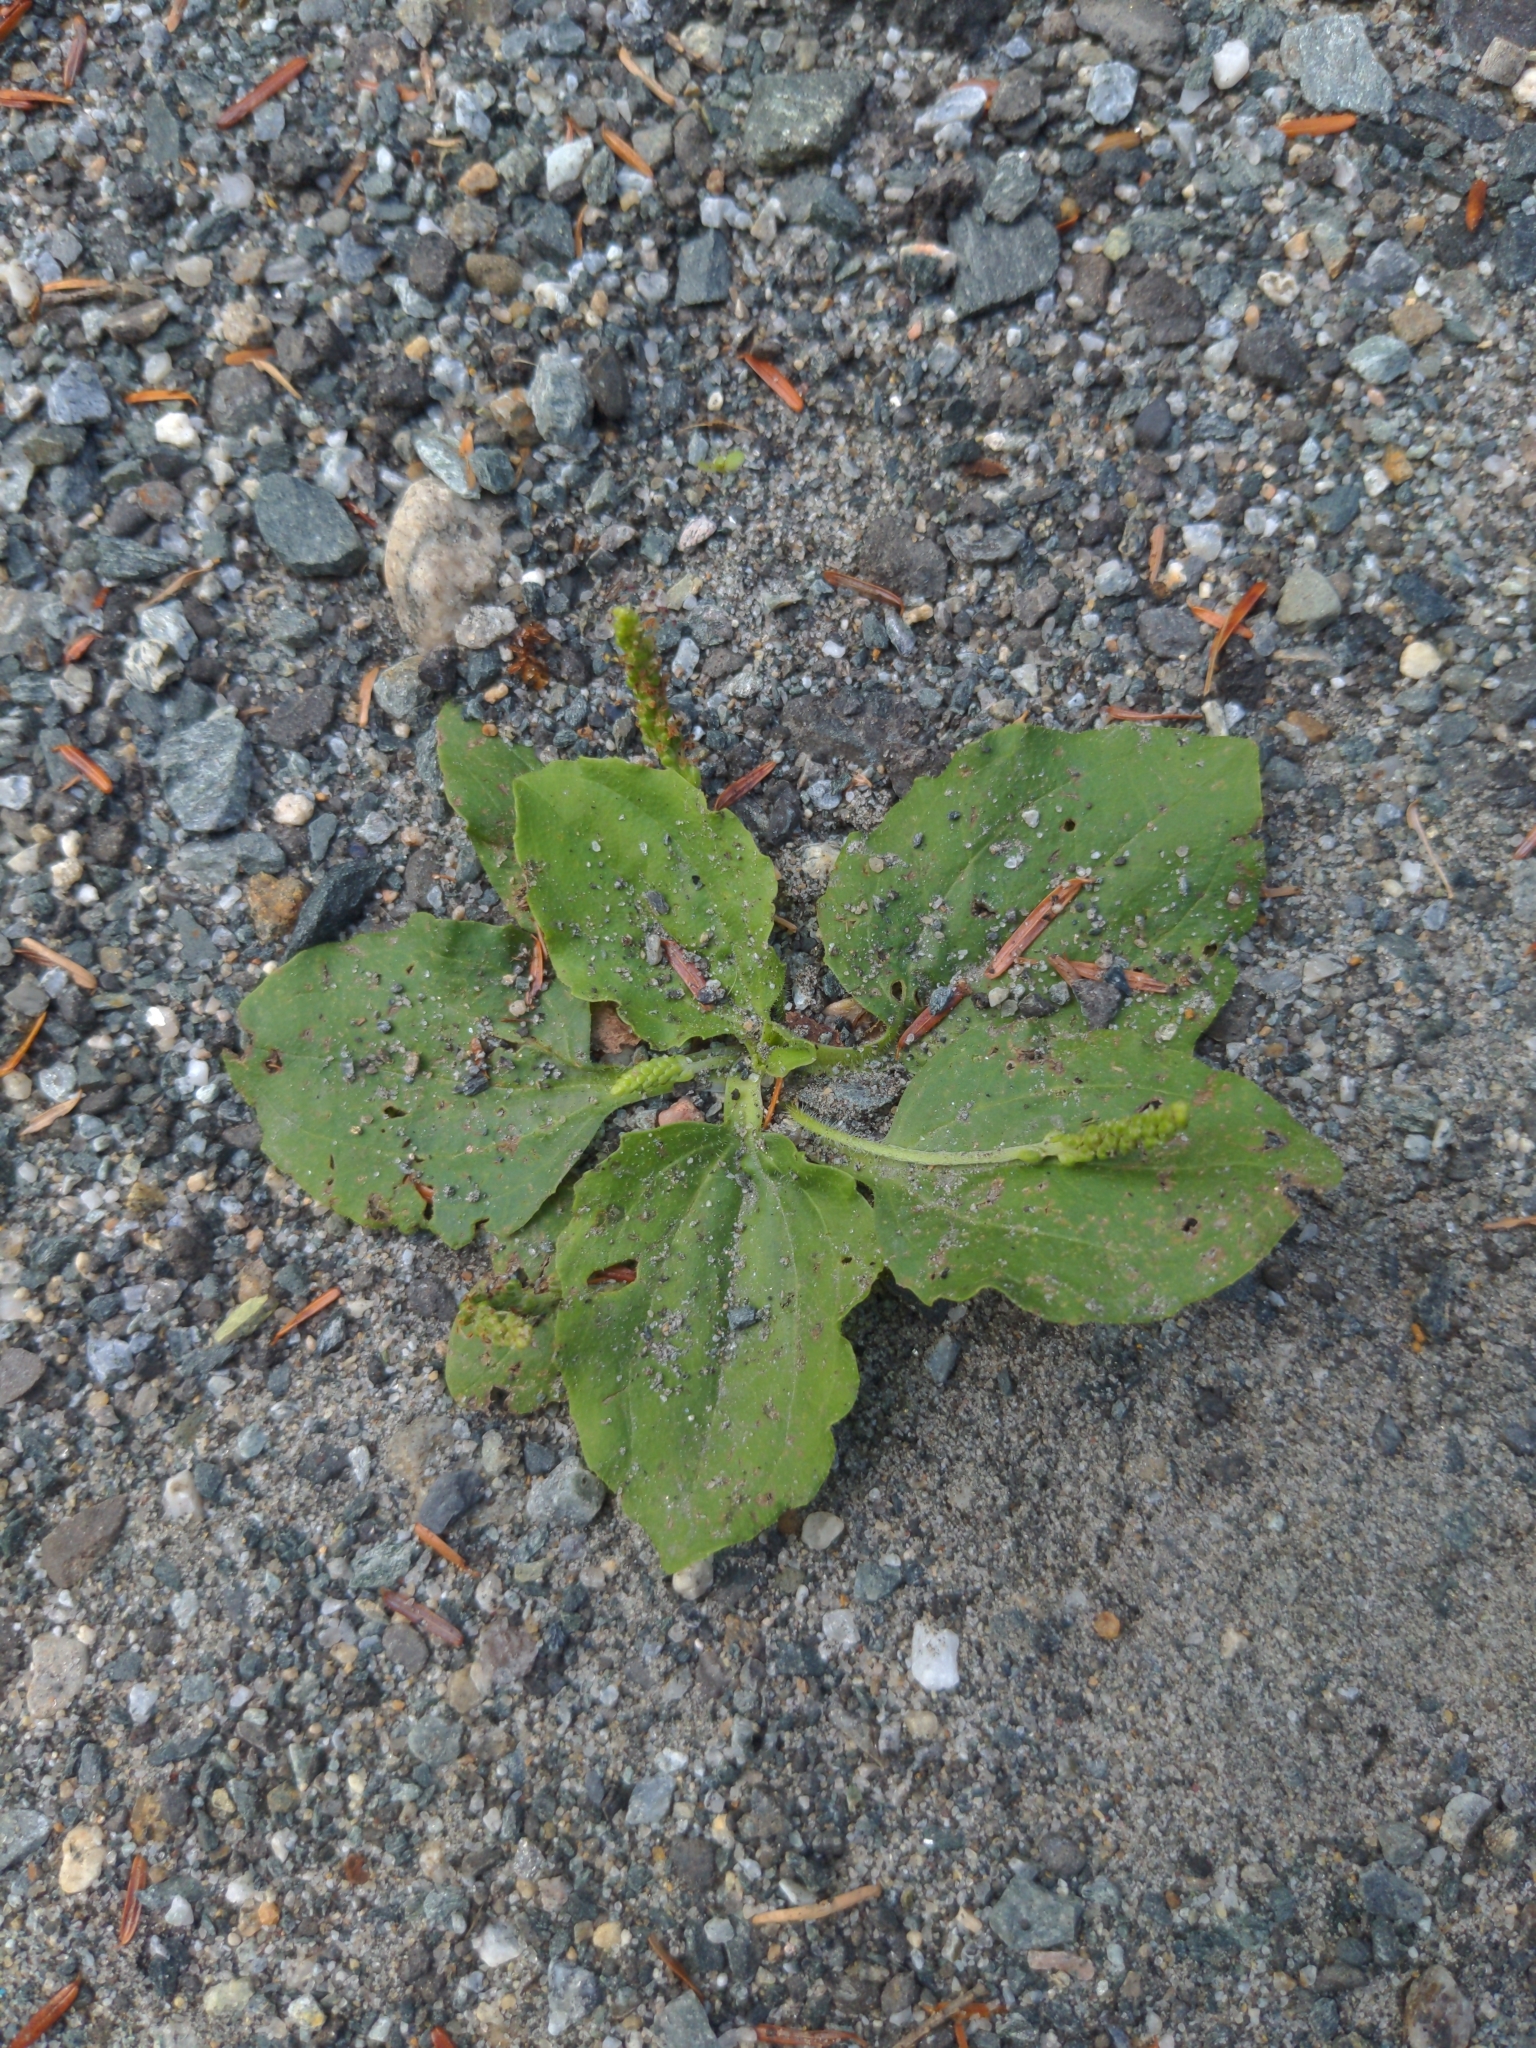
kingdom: Plantae
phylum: Tracheophyta
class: Magnoliopsida
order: Lamiales
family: Plantaginaceae
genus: Plantago
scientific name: Plantago major
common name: Common plantain
